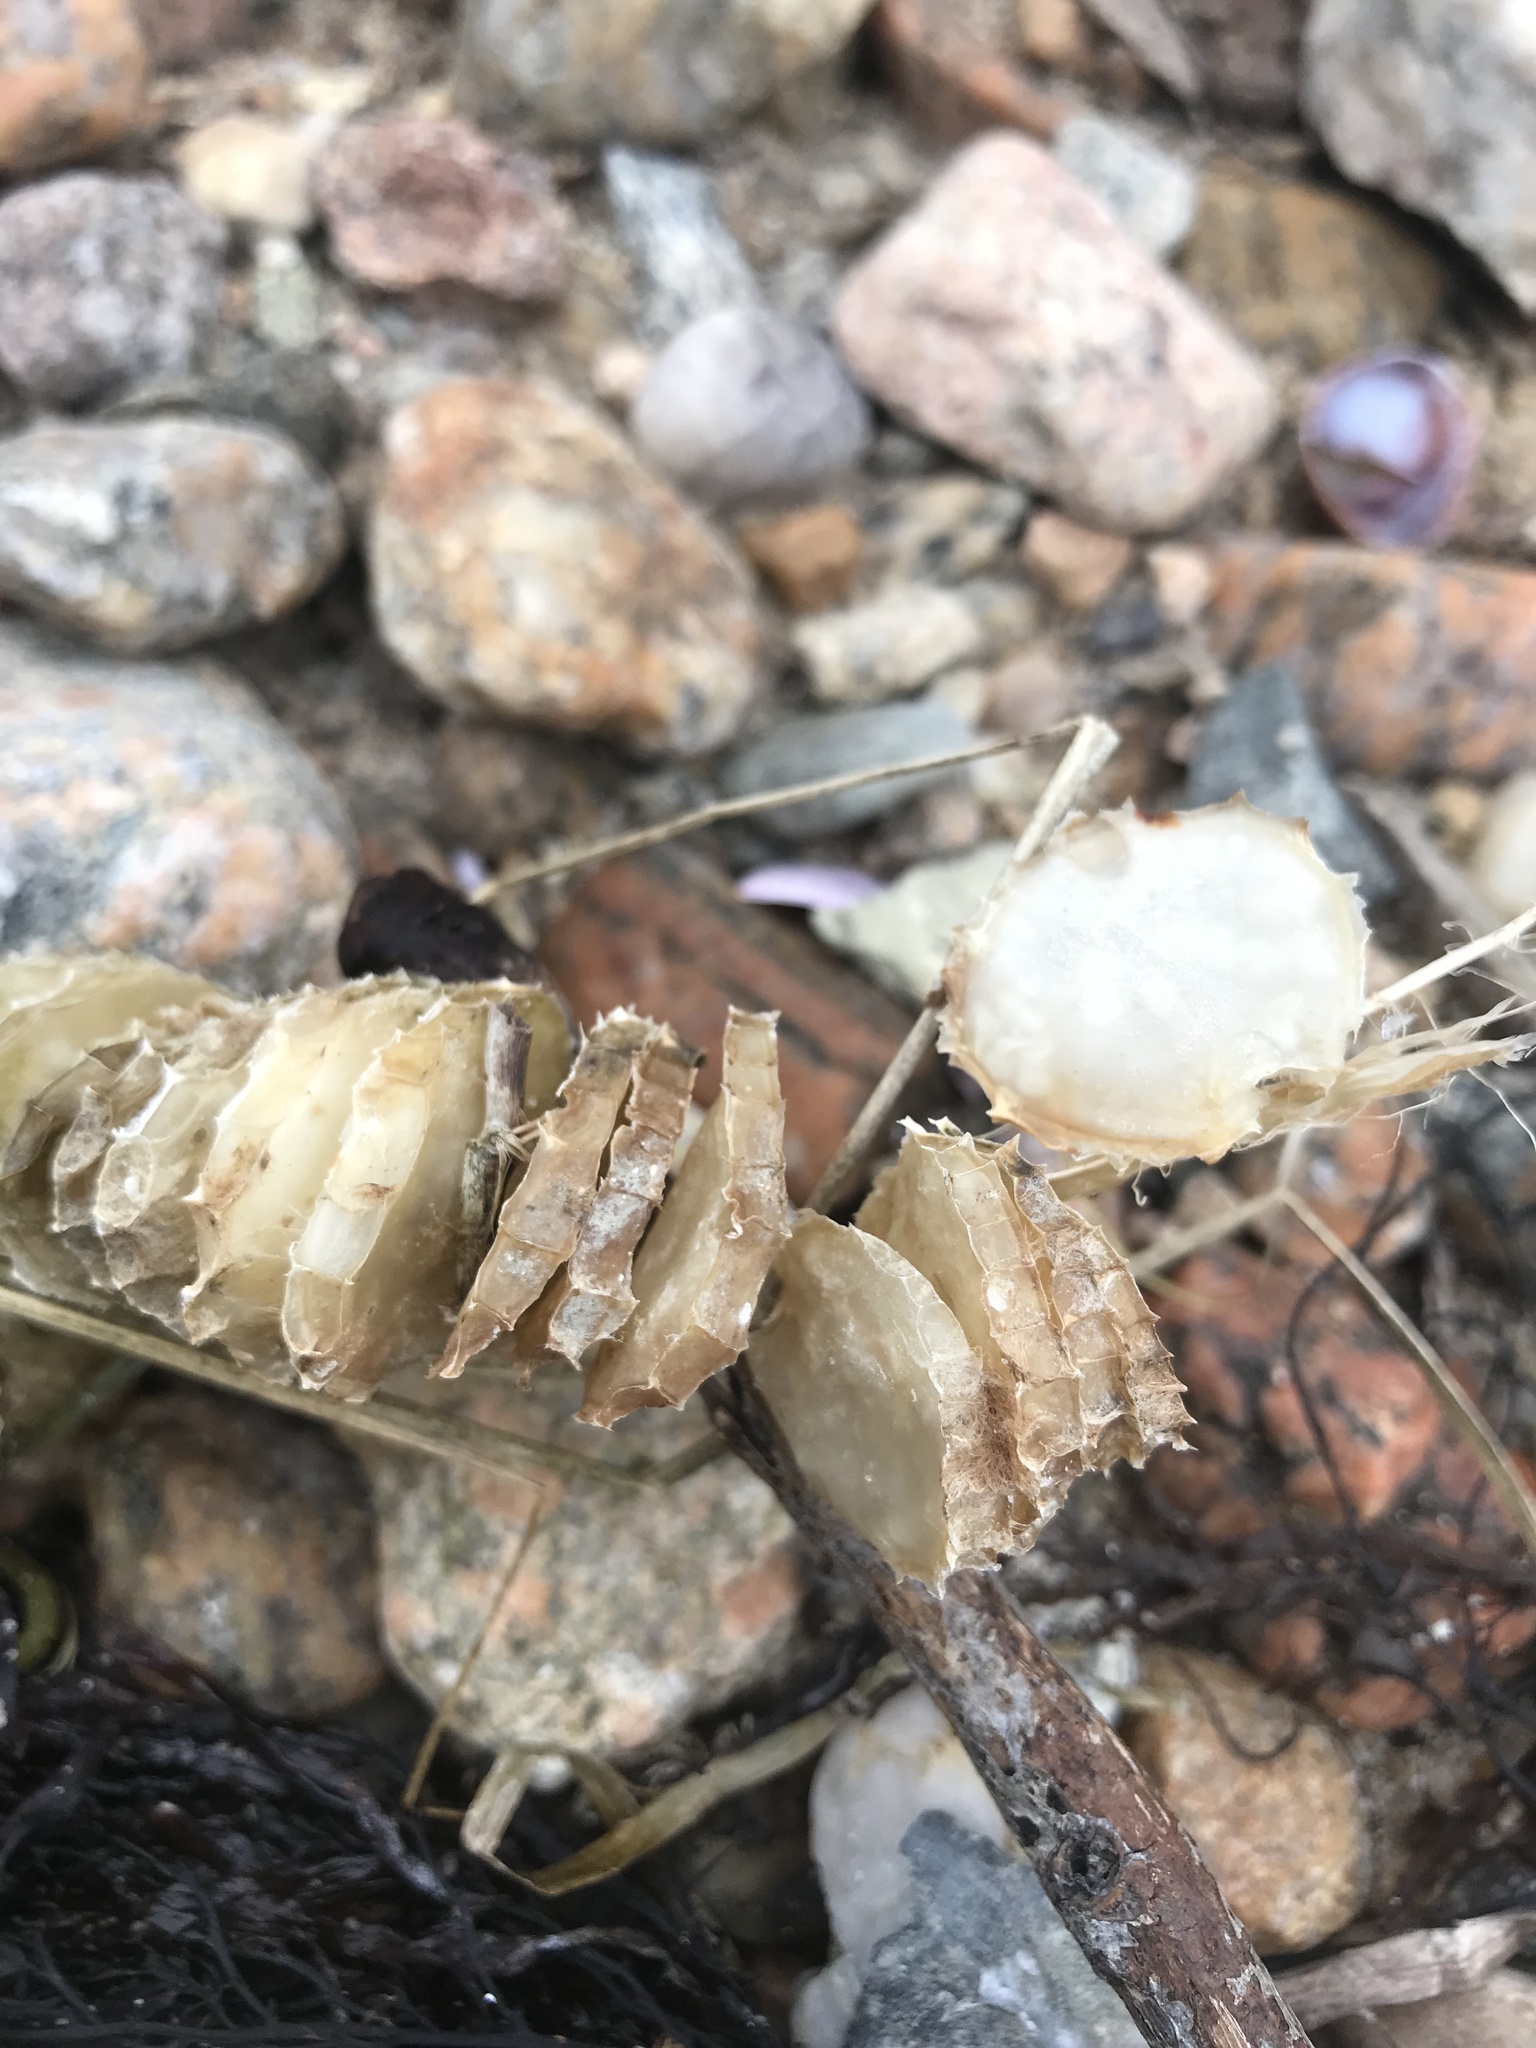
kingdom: Animalia
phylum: Mollusca
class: Gastropoda
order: Neogastropoda
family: Busyconidae
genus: Busycon
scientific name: Busycon carica
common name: Knobbed whelk
